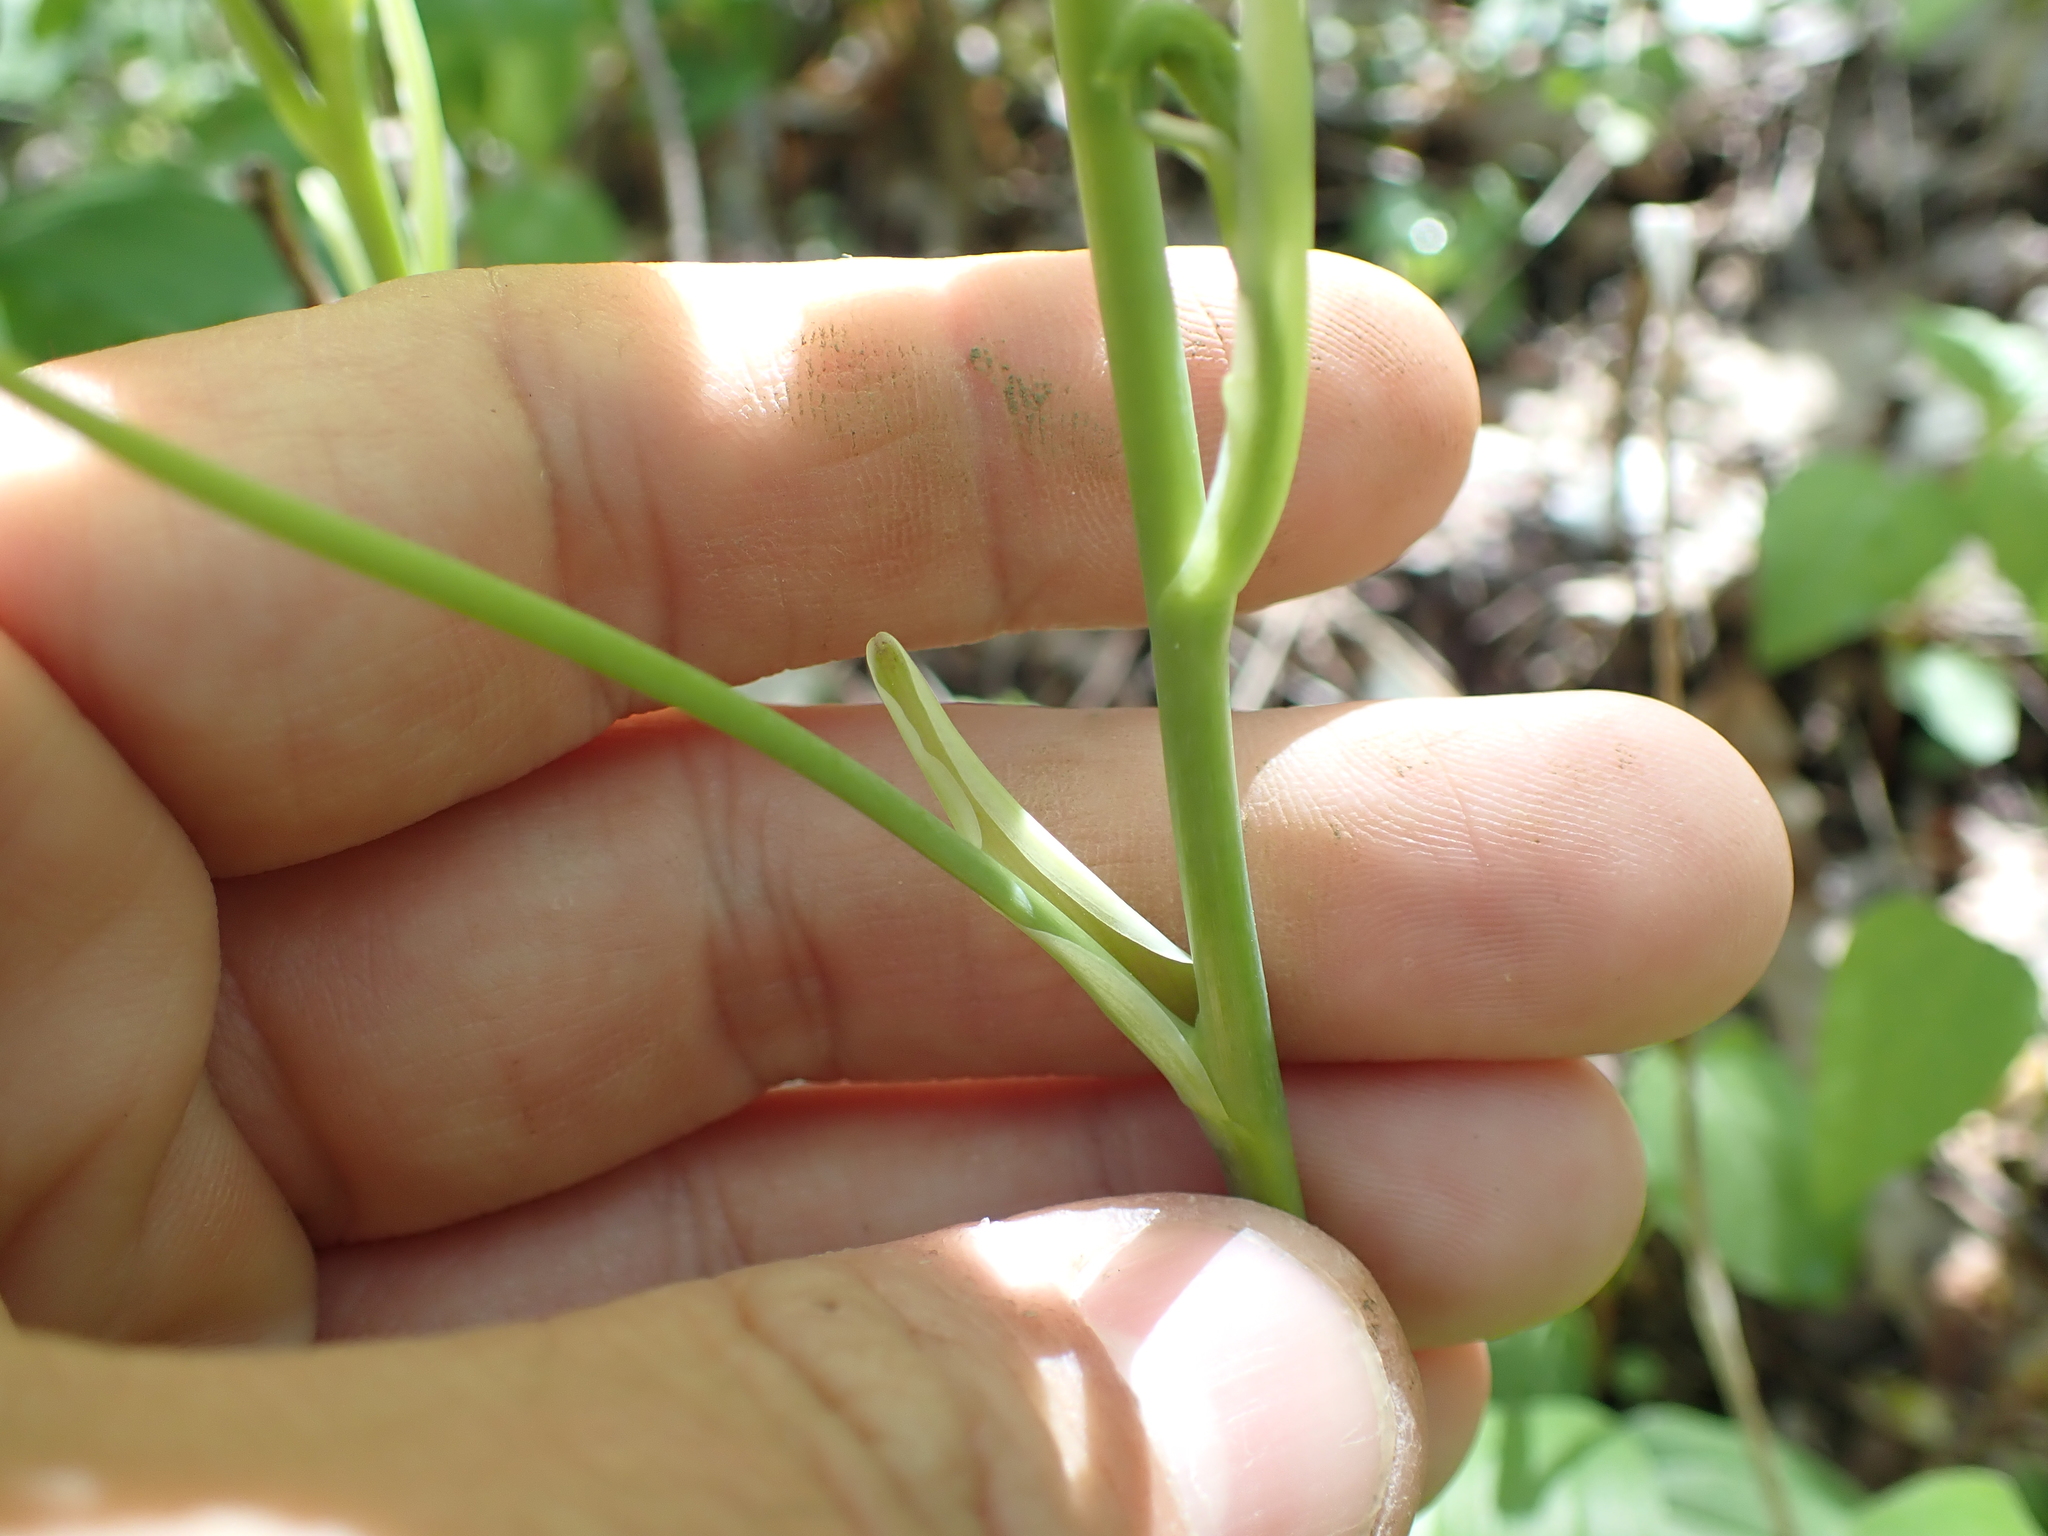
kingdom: Plantae
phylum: Tracheophyta
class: Liliopsida
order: Liliales
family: Smilacaceae
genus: Smilax
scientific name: Smilax ecirrhata
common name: Upright carrionflower
